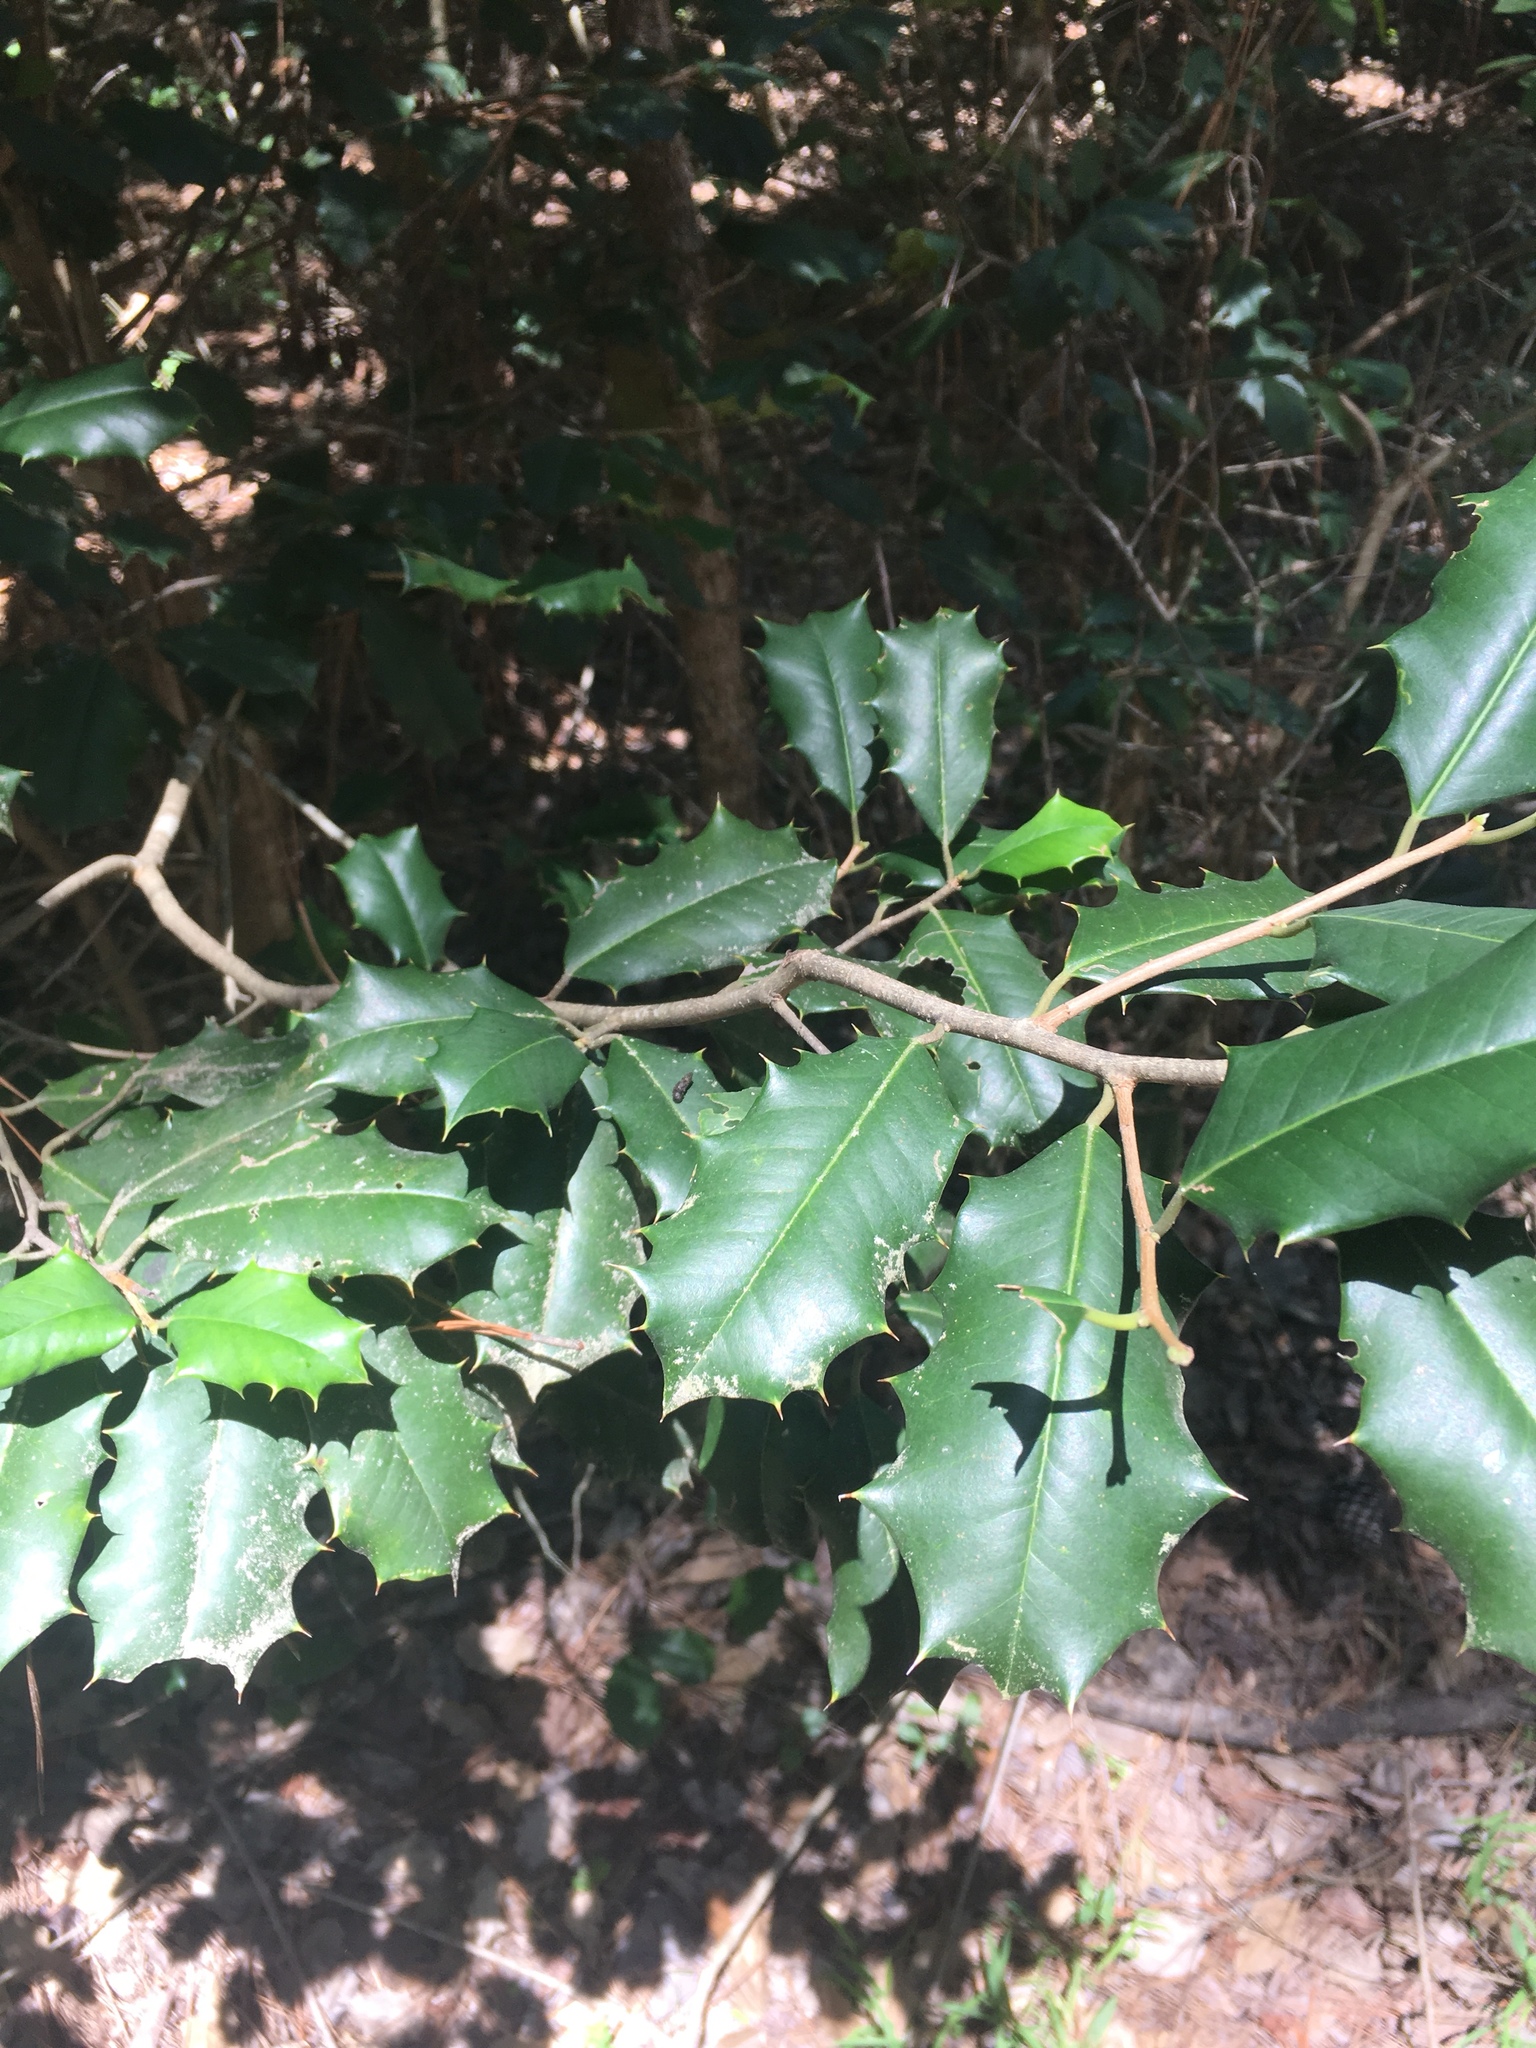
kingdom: Plantae
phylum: Tracheophyta
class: Magnoliopsida
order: Aquifoliales
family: Aquifoliaceae
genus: Ilex
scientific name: Ilex opaca
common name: American holly
